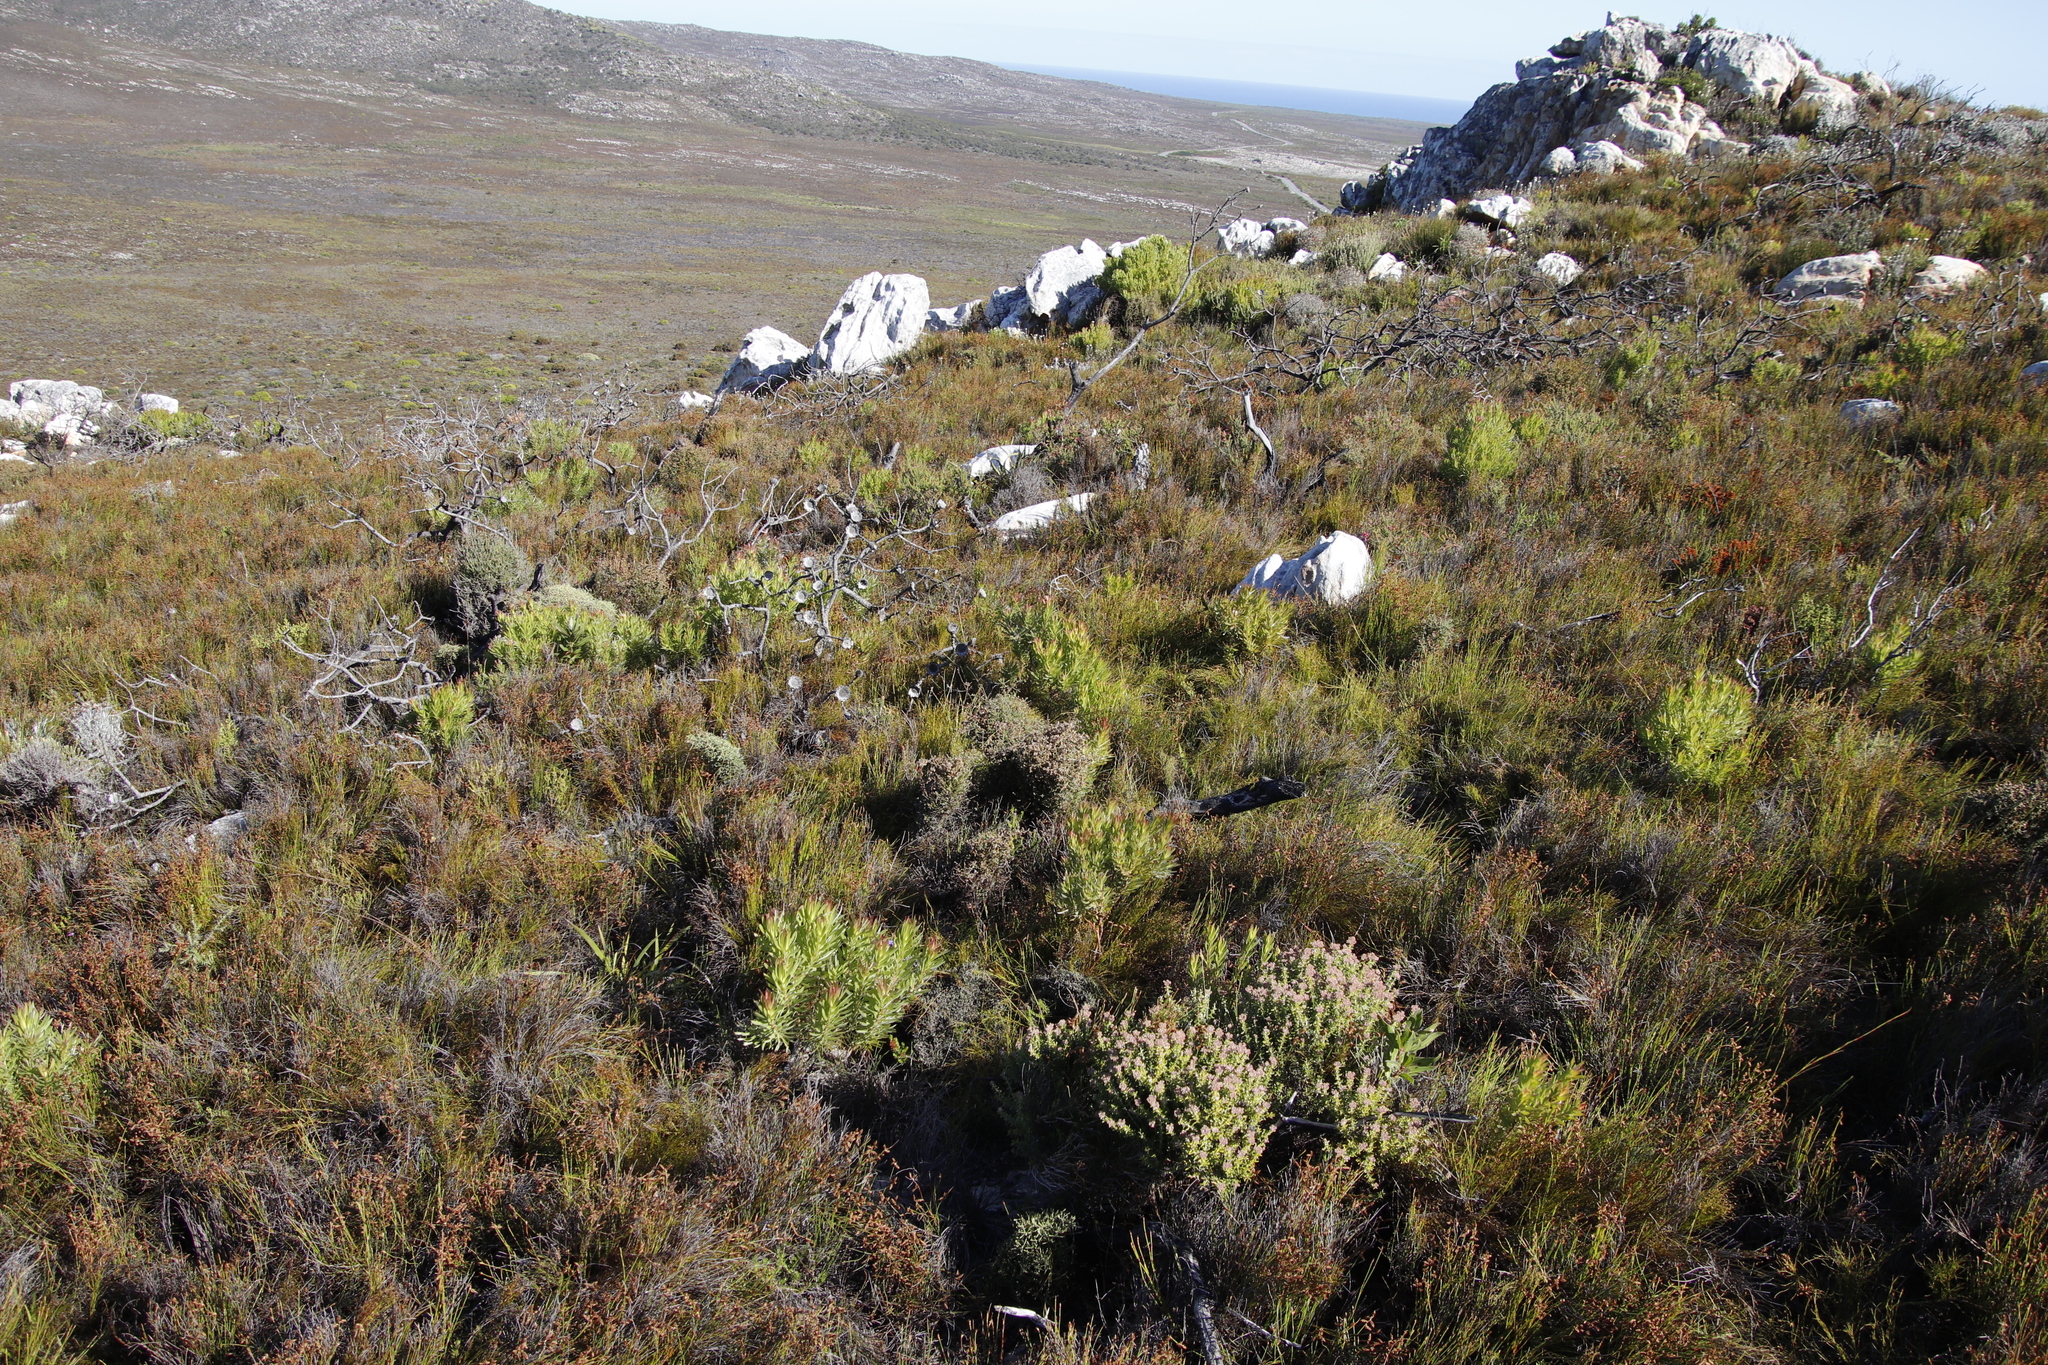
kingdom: Plantae
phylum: Tracheophyta
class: Magnoliopsida
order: Proteales
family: Proteaceae
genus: Leucadendron
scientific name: Leucadendron xanthoconus
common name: Sickle-leaf conebush
